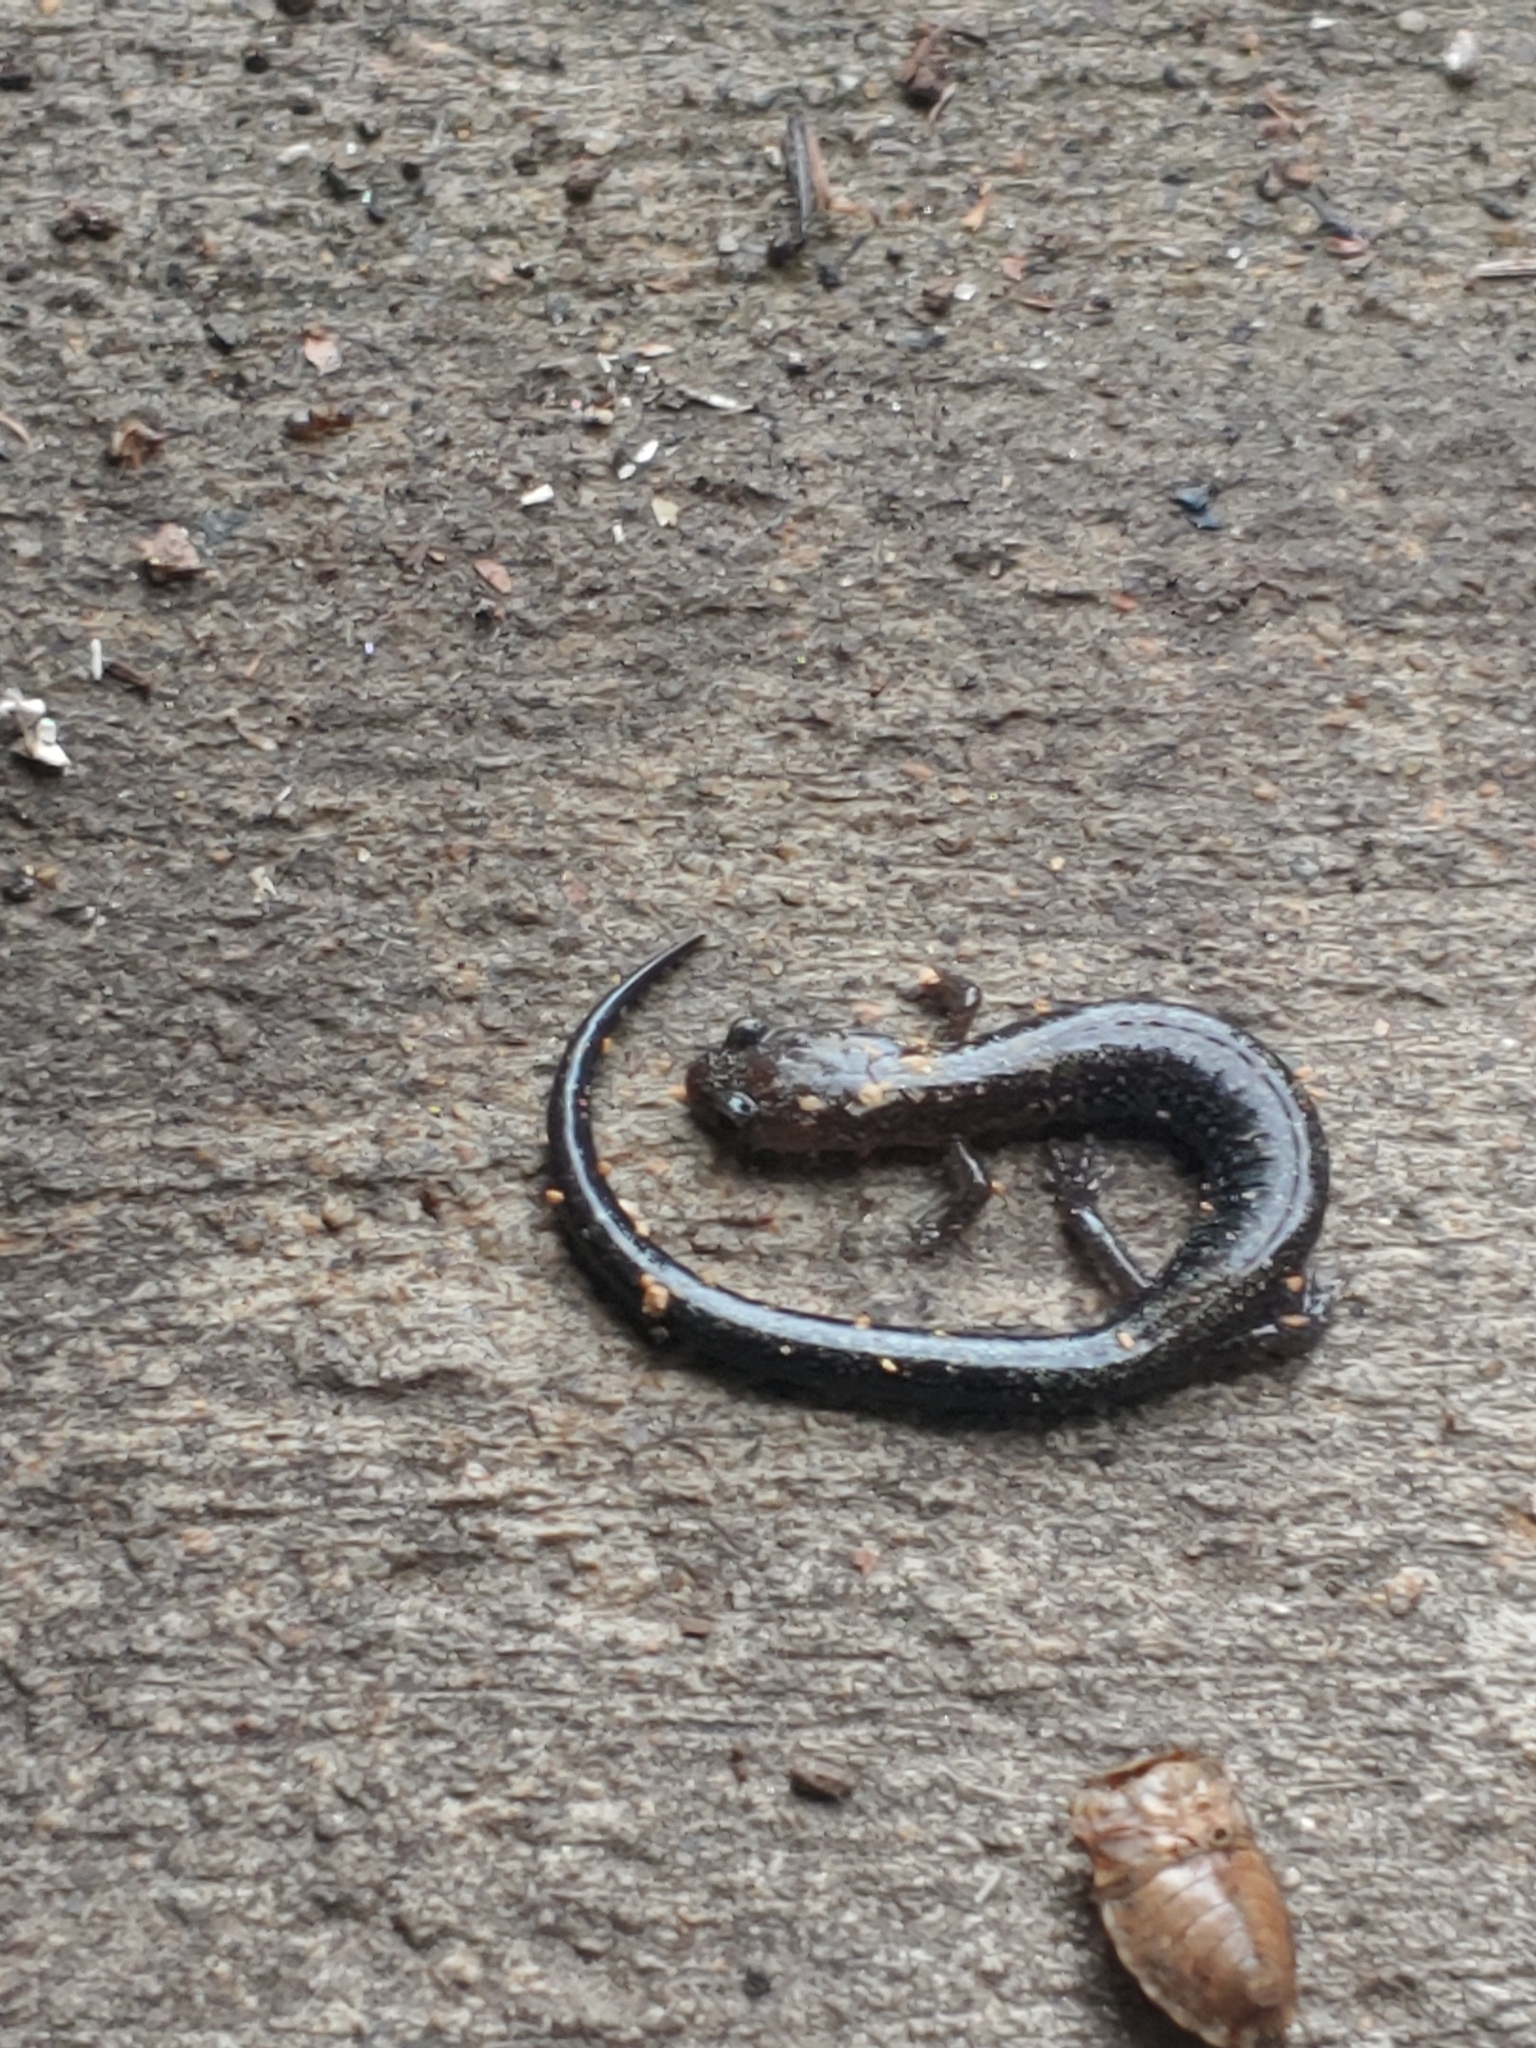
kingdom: Animalia
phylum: Chordata
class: Amphibia
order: Caudata
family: Plethodontidae
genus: Plethodon
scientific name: Plethodon cinereus
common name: Redback salamander
